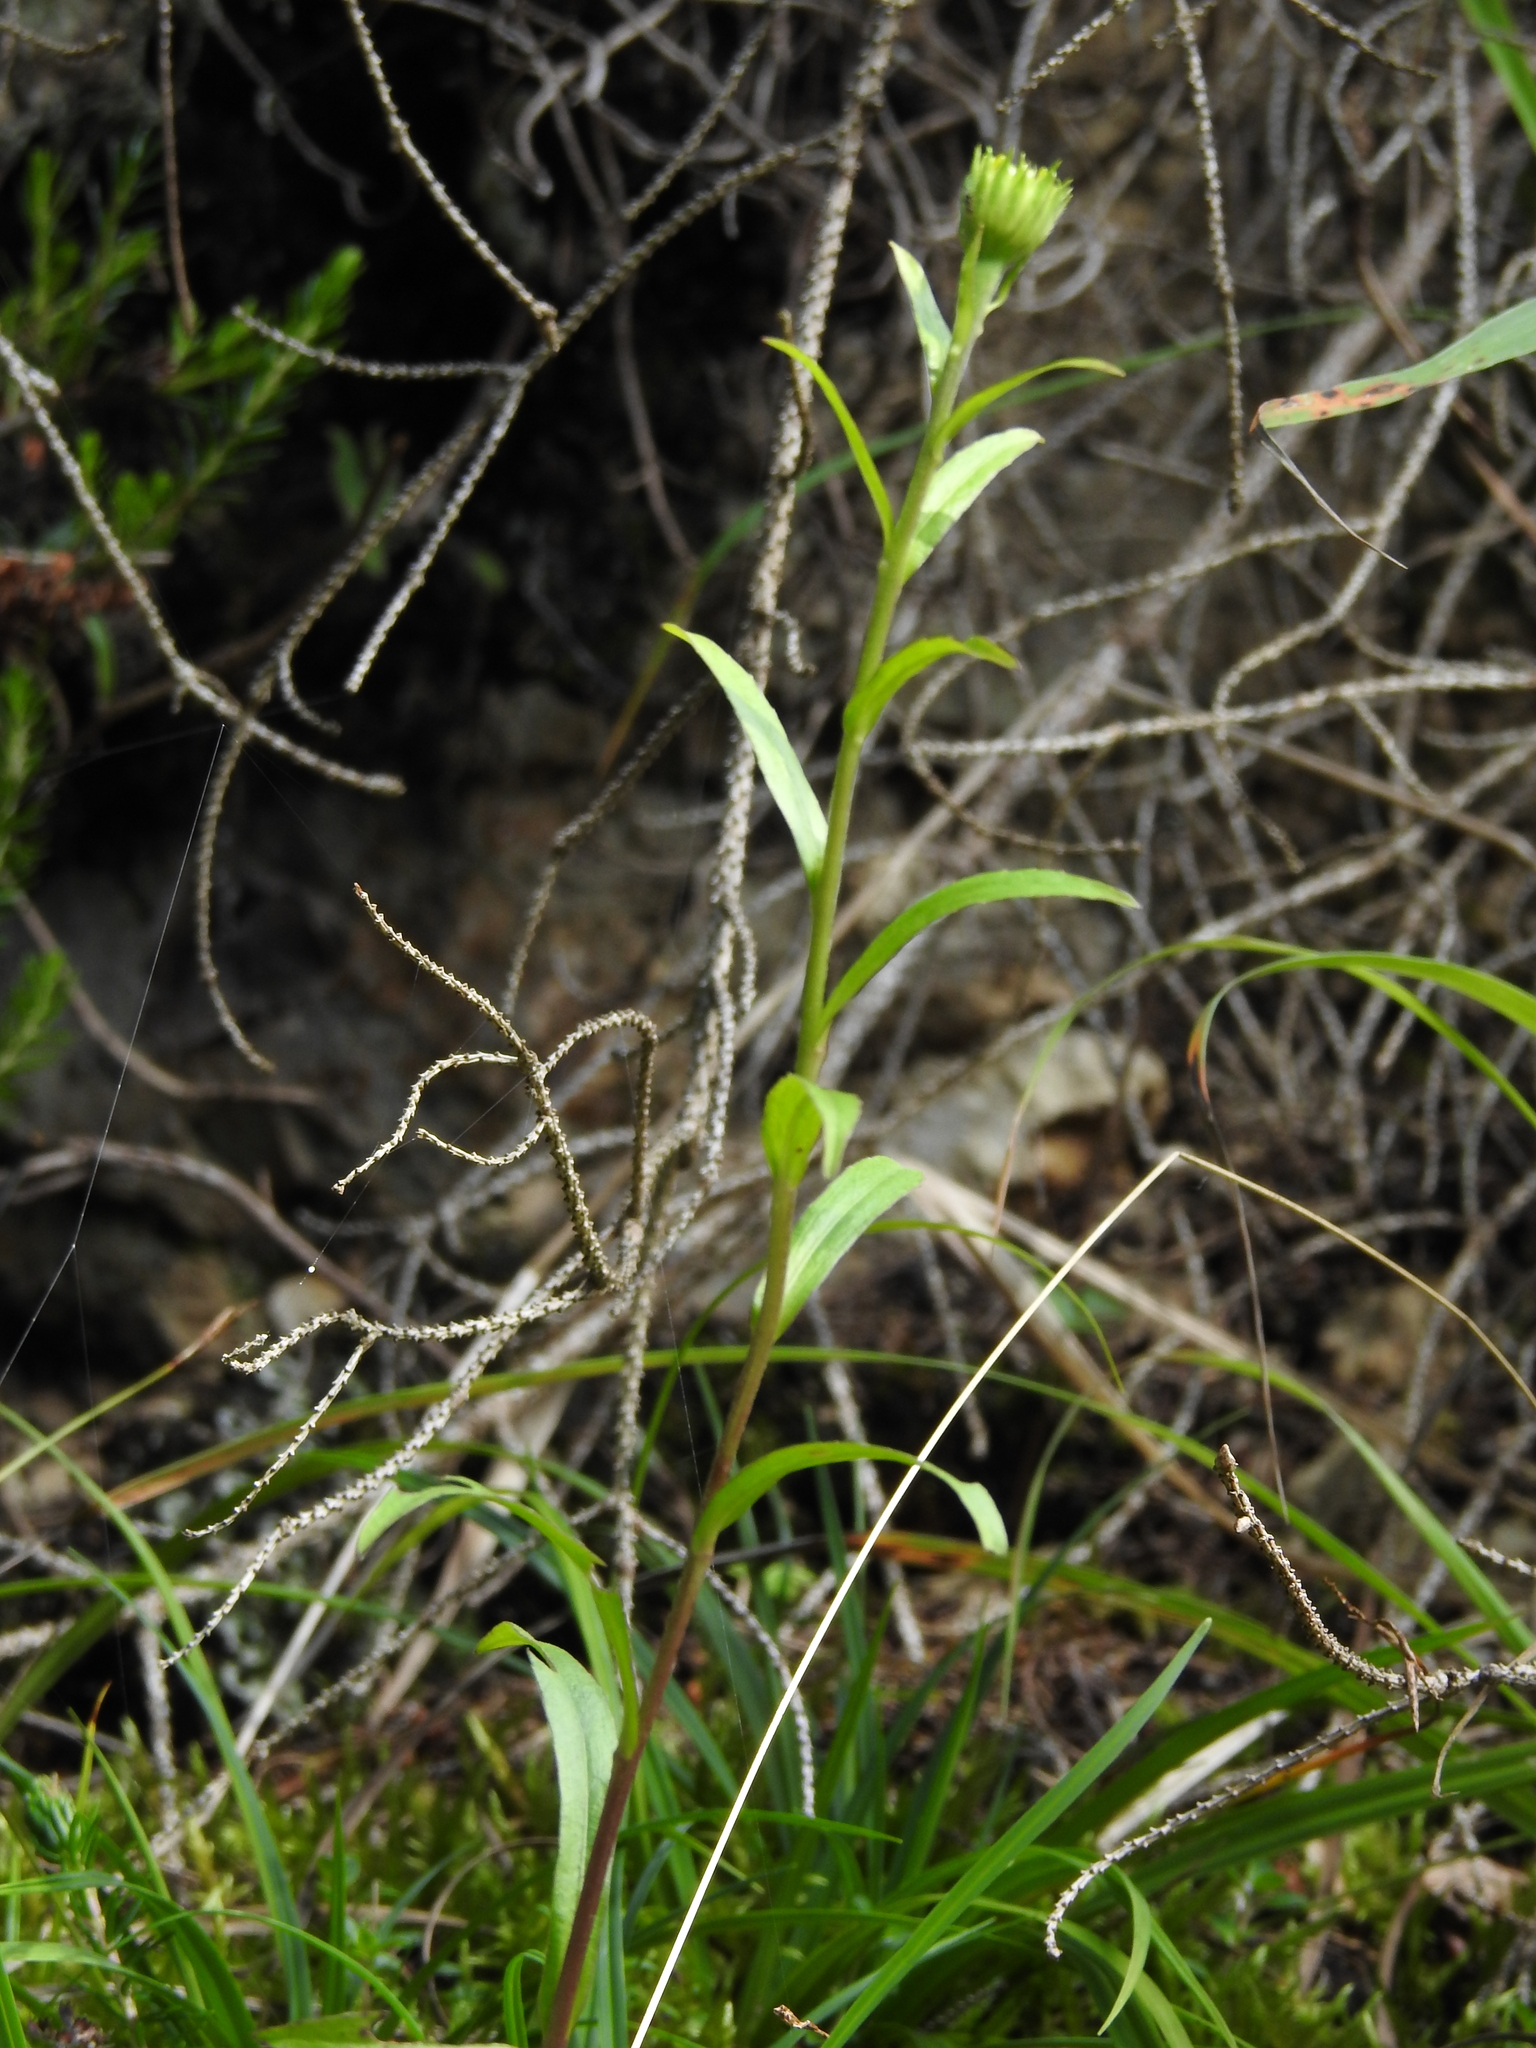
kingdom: Plantae
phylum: Tracheophyta
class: Magnoliopsida
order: Asterales
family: Asteraceae
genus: Buphthalmum
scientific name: Buphthalmum salicifolium
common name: Willow-leaved yellow-oxeye
